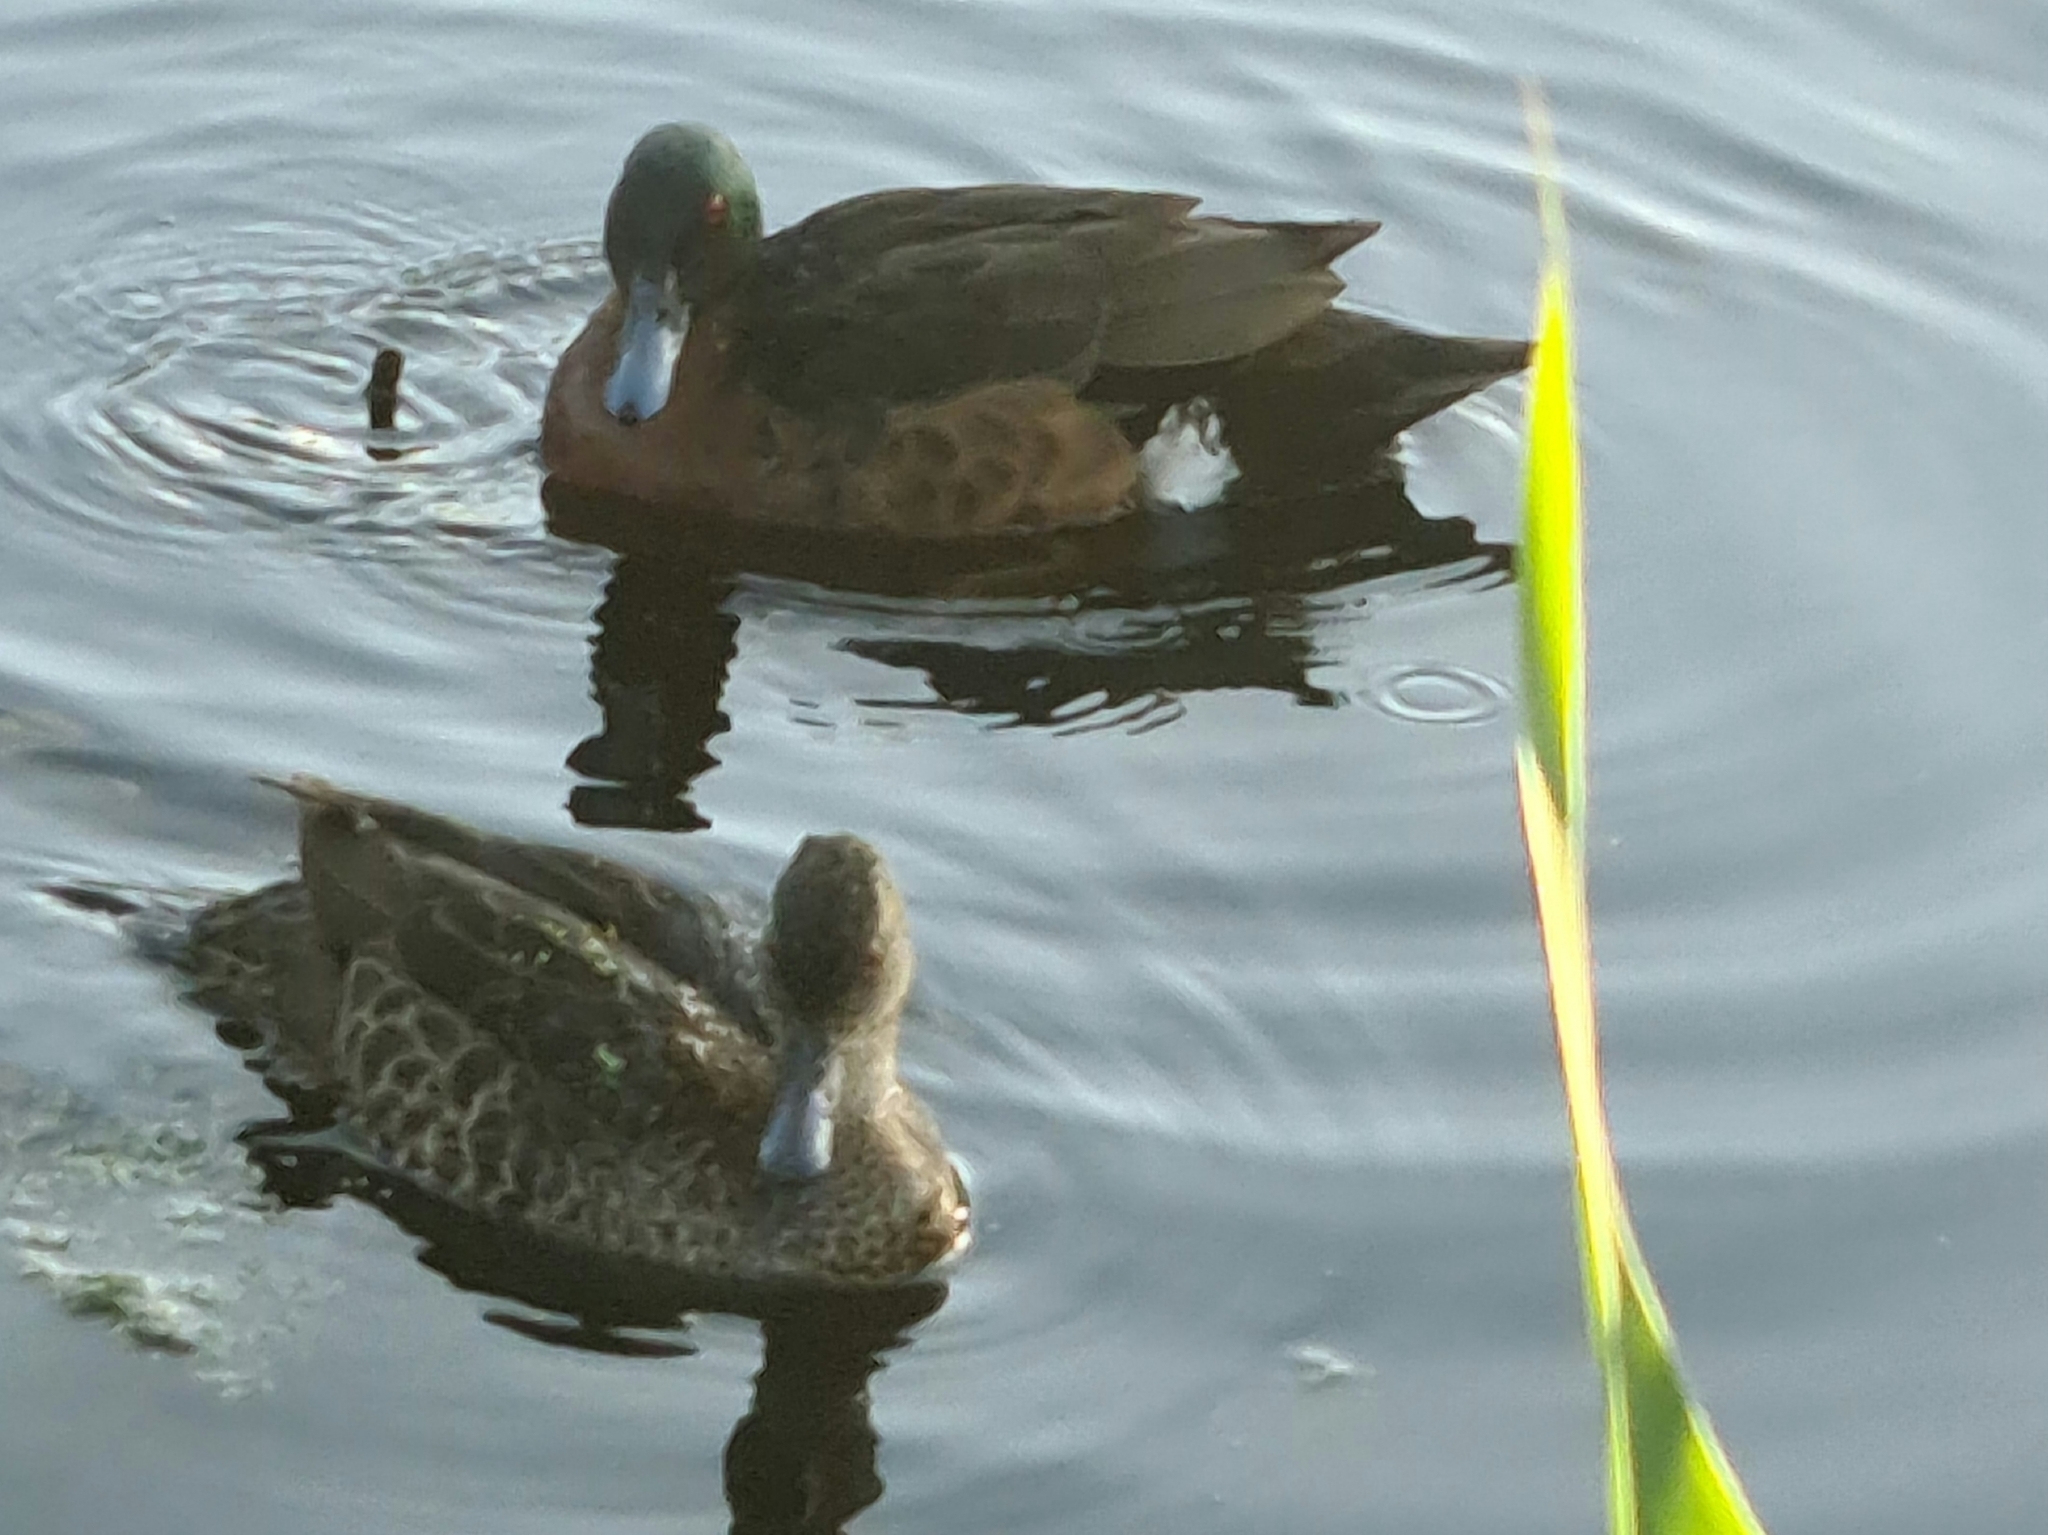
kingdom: Animalia
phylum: Chordata
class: Aves
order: Anseriformes
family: Anatidae
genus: Anas
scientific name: Anas castanea
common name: Chestnut teal
